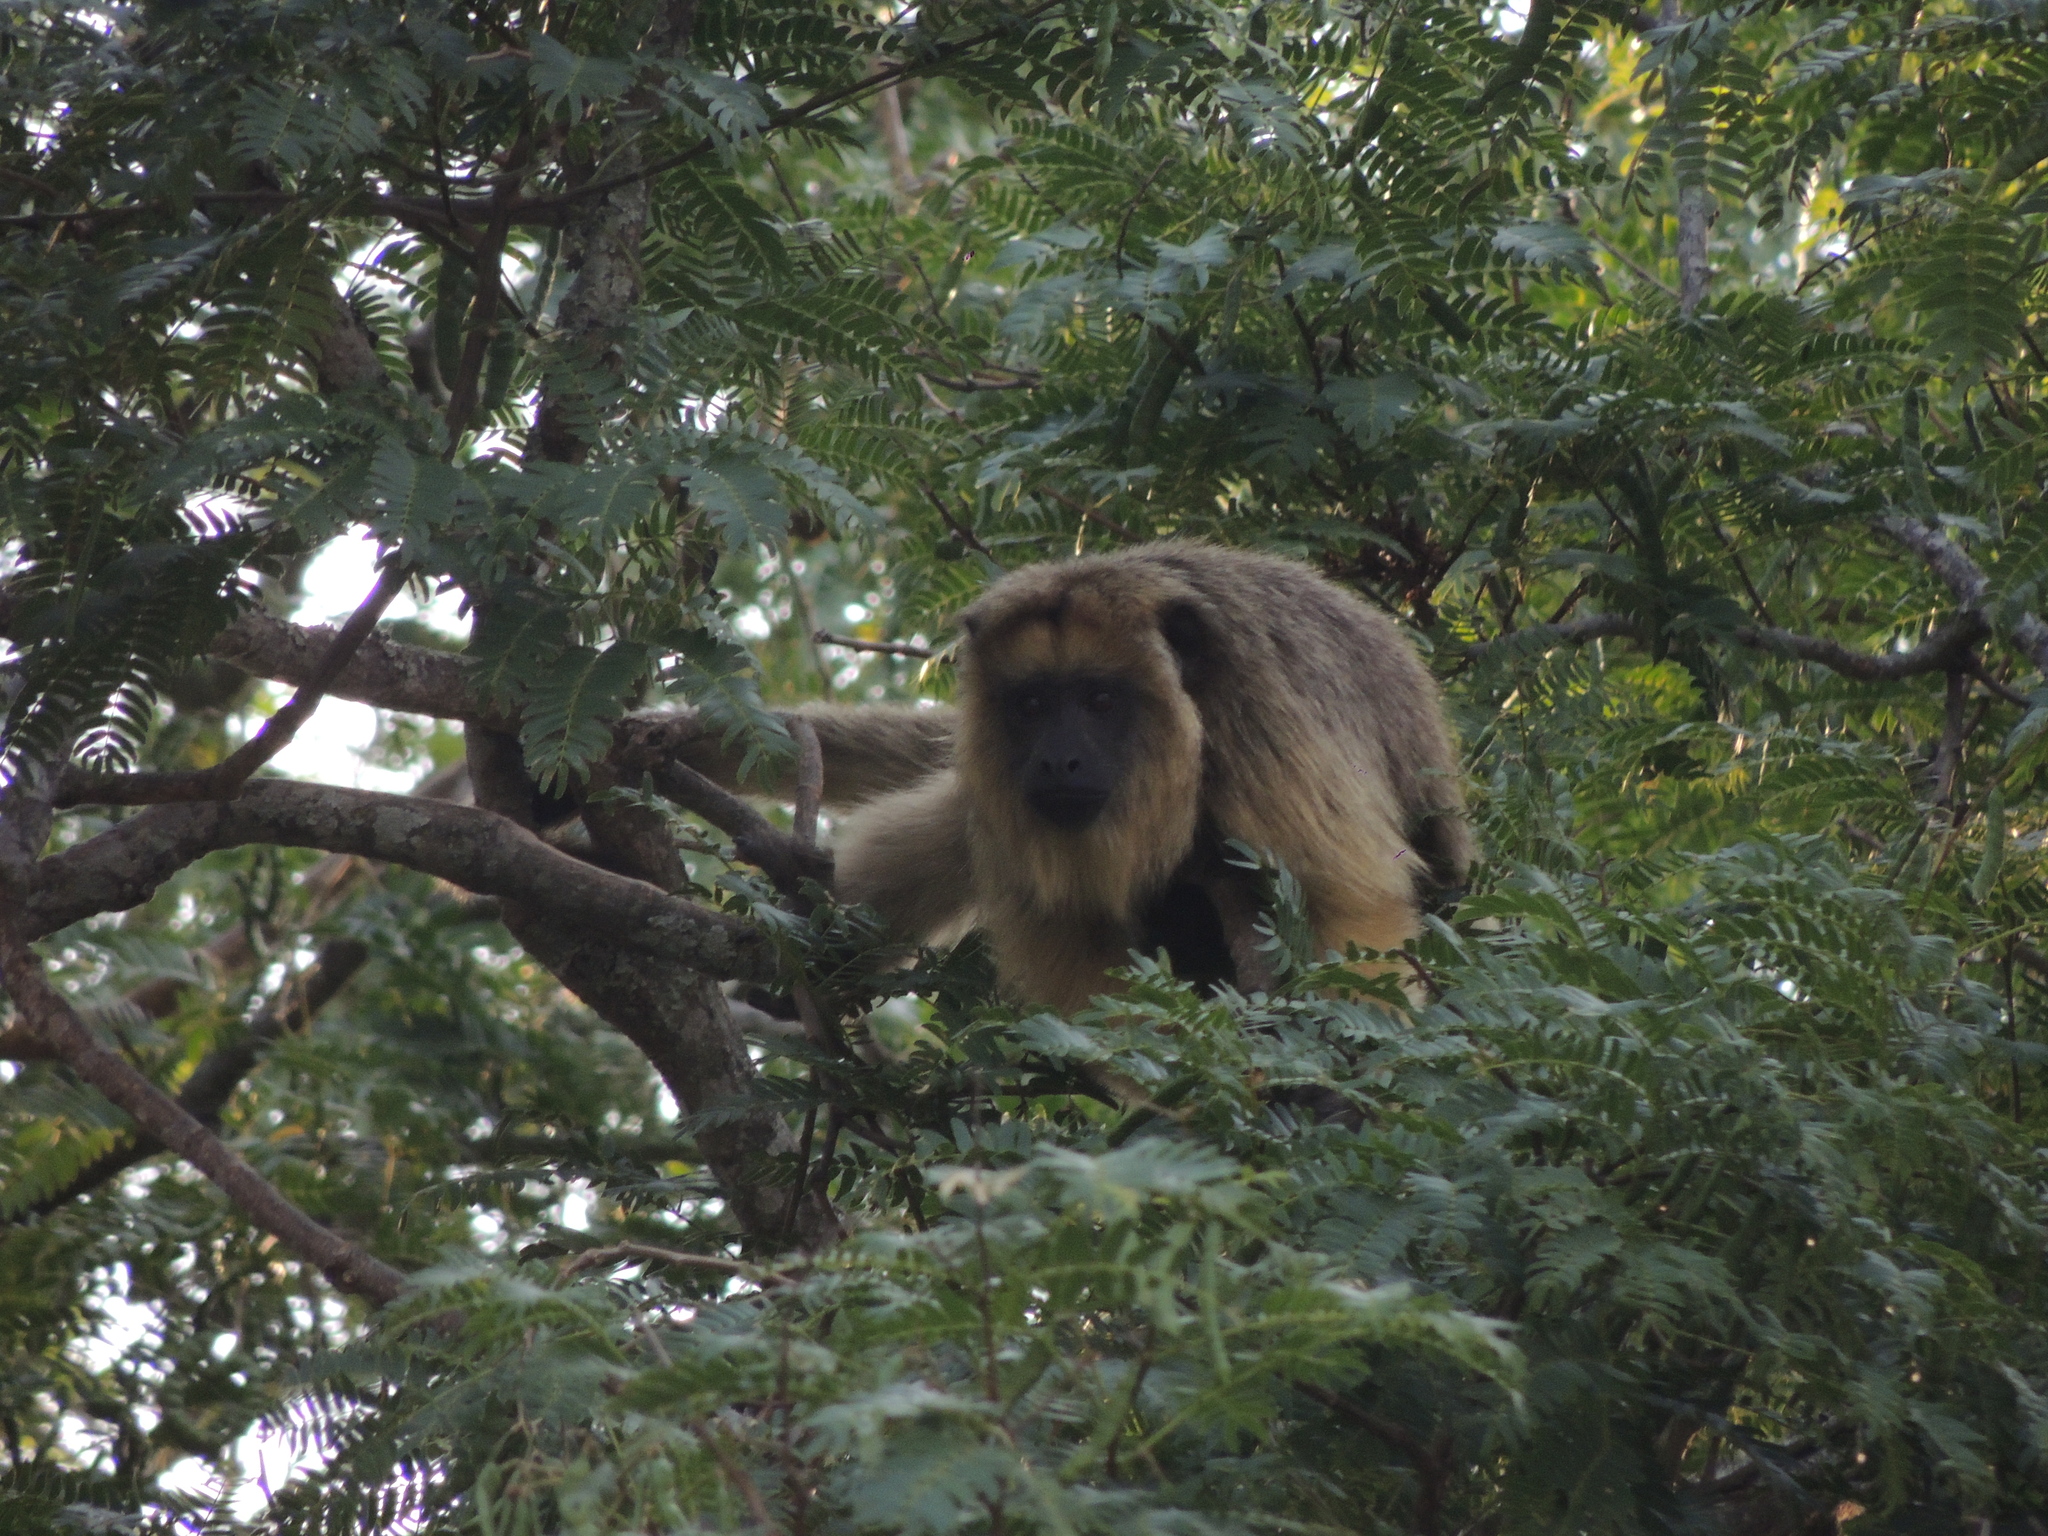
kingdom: Animalia
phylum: Chordata
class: Mammalia
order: Primates
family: Atelidae
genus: Alouatta
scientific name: Alouatta caraya
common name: Black howler
